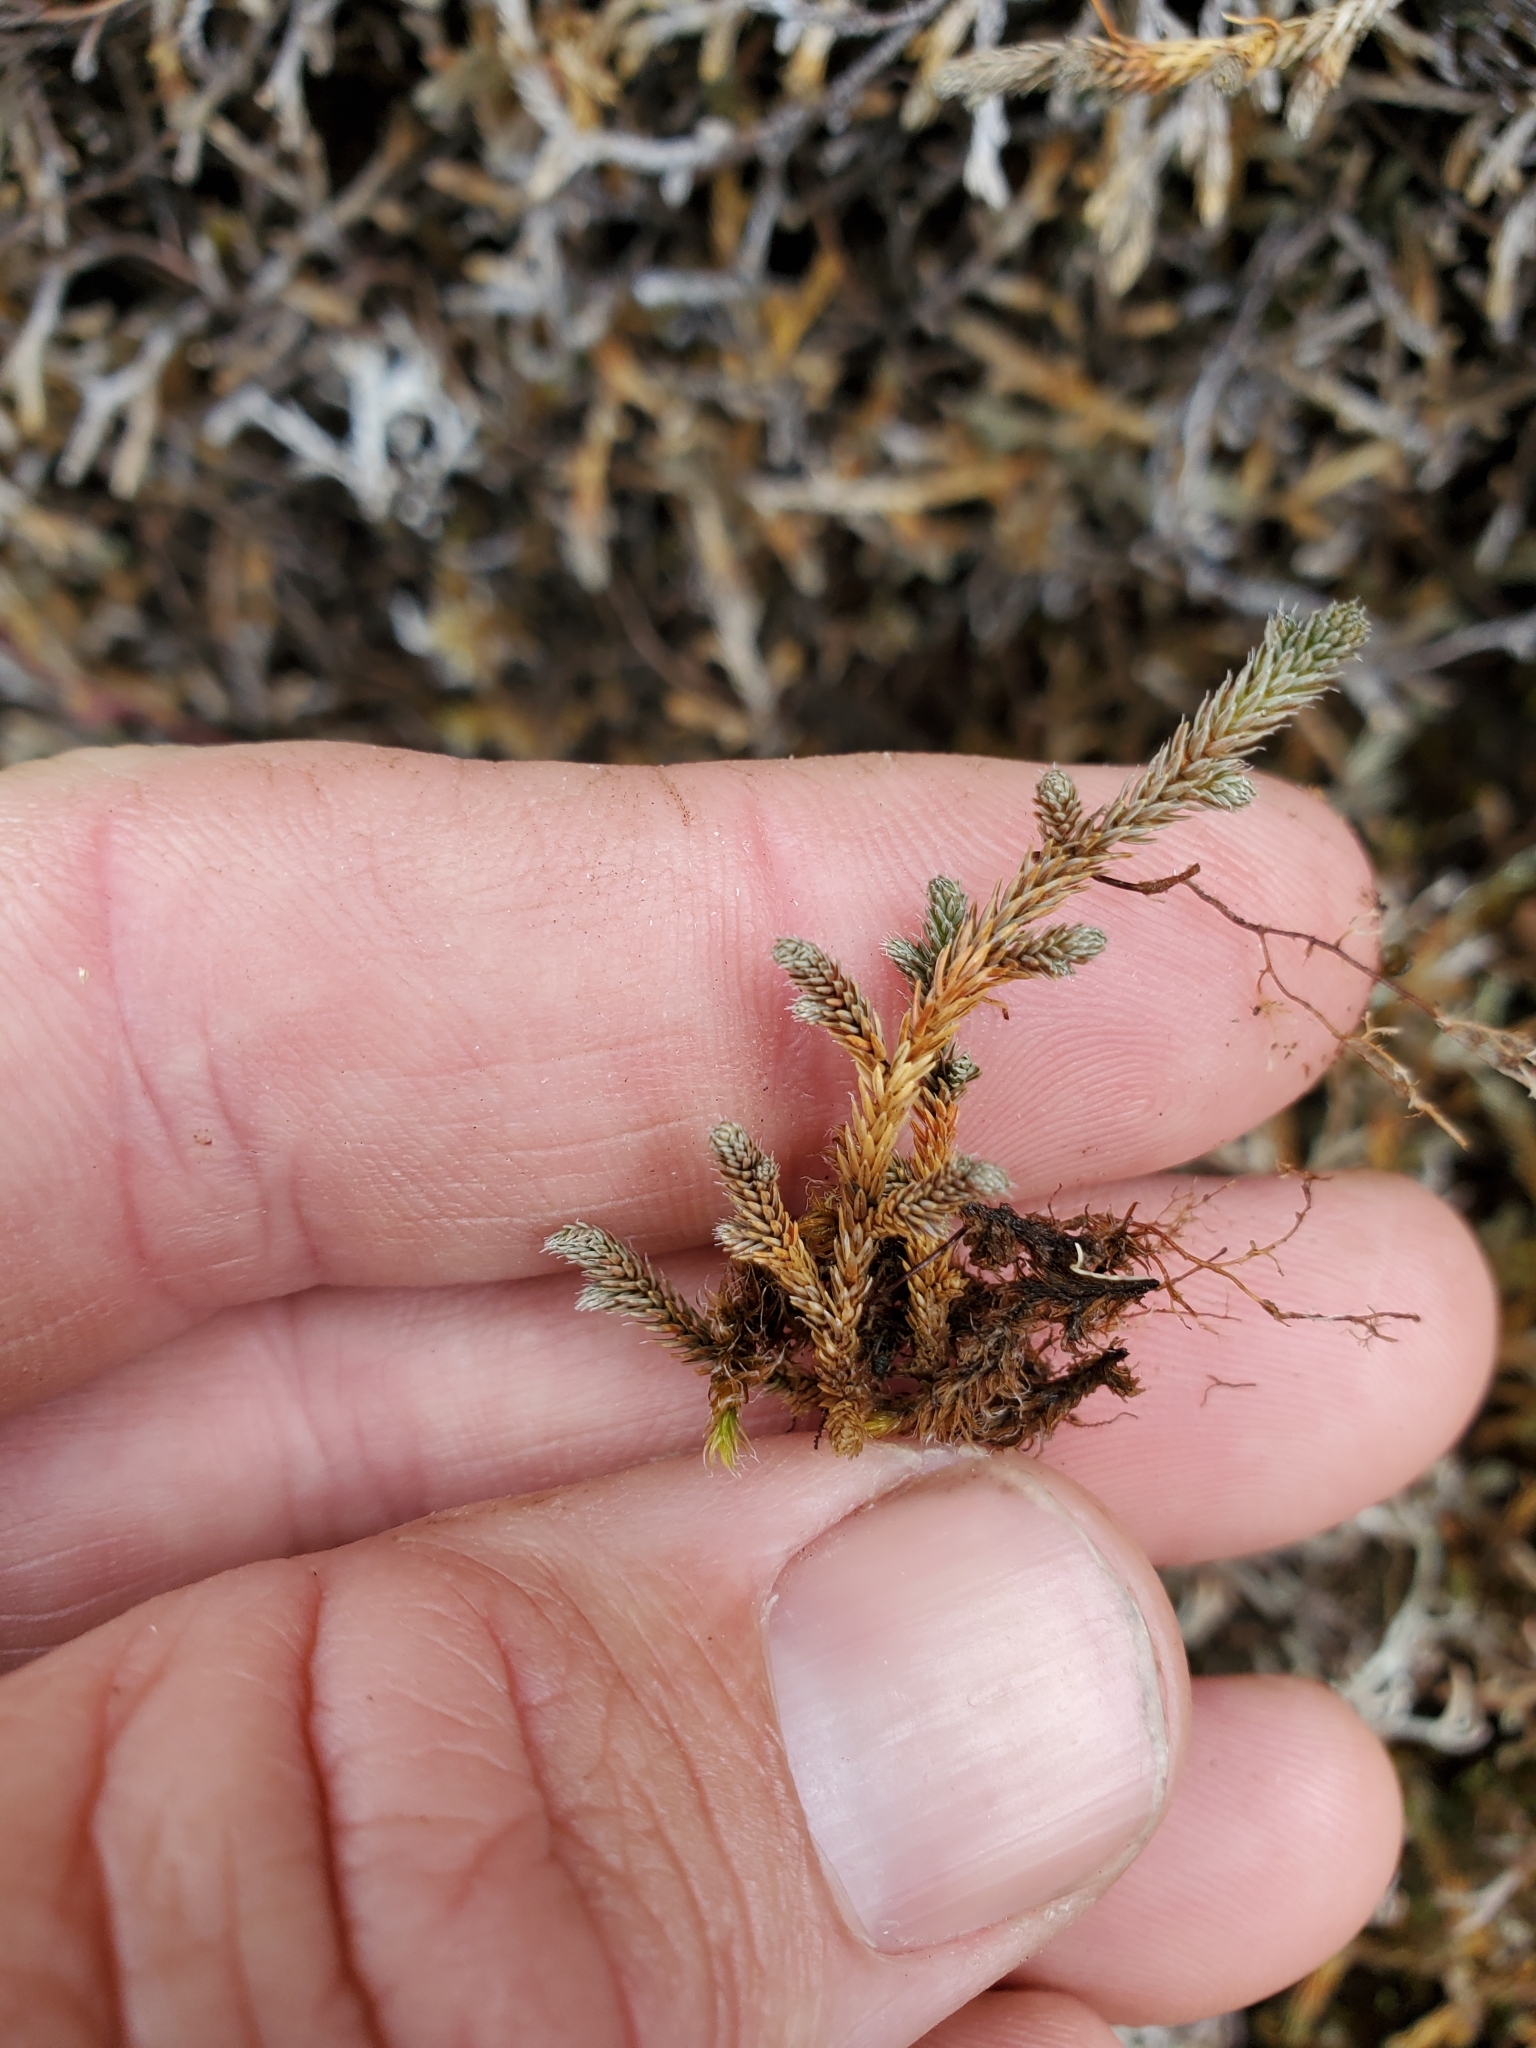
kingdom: Plantae
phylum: Tracheophyta
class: Lycopodiopsida
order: Selaginellales
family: Selaginellaceae
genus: Selaginella
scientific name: Selaginella wallacei
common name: Wallace's selaginella
